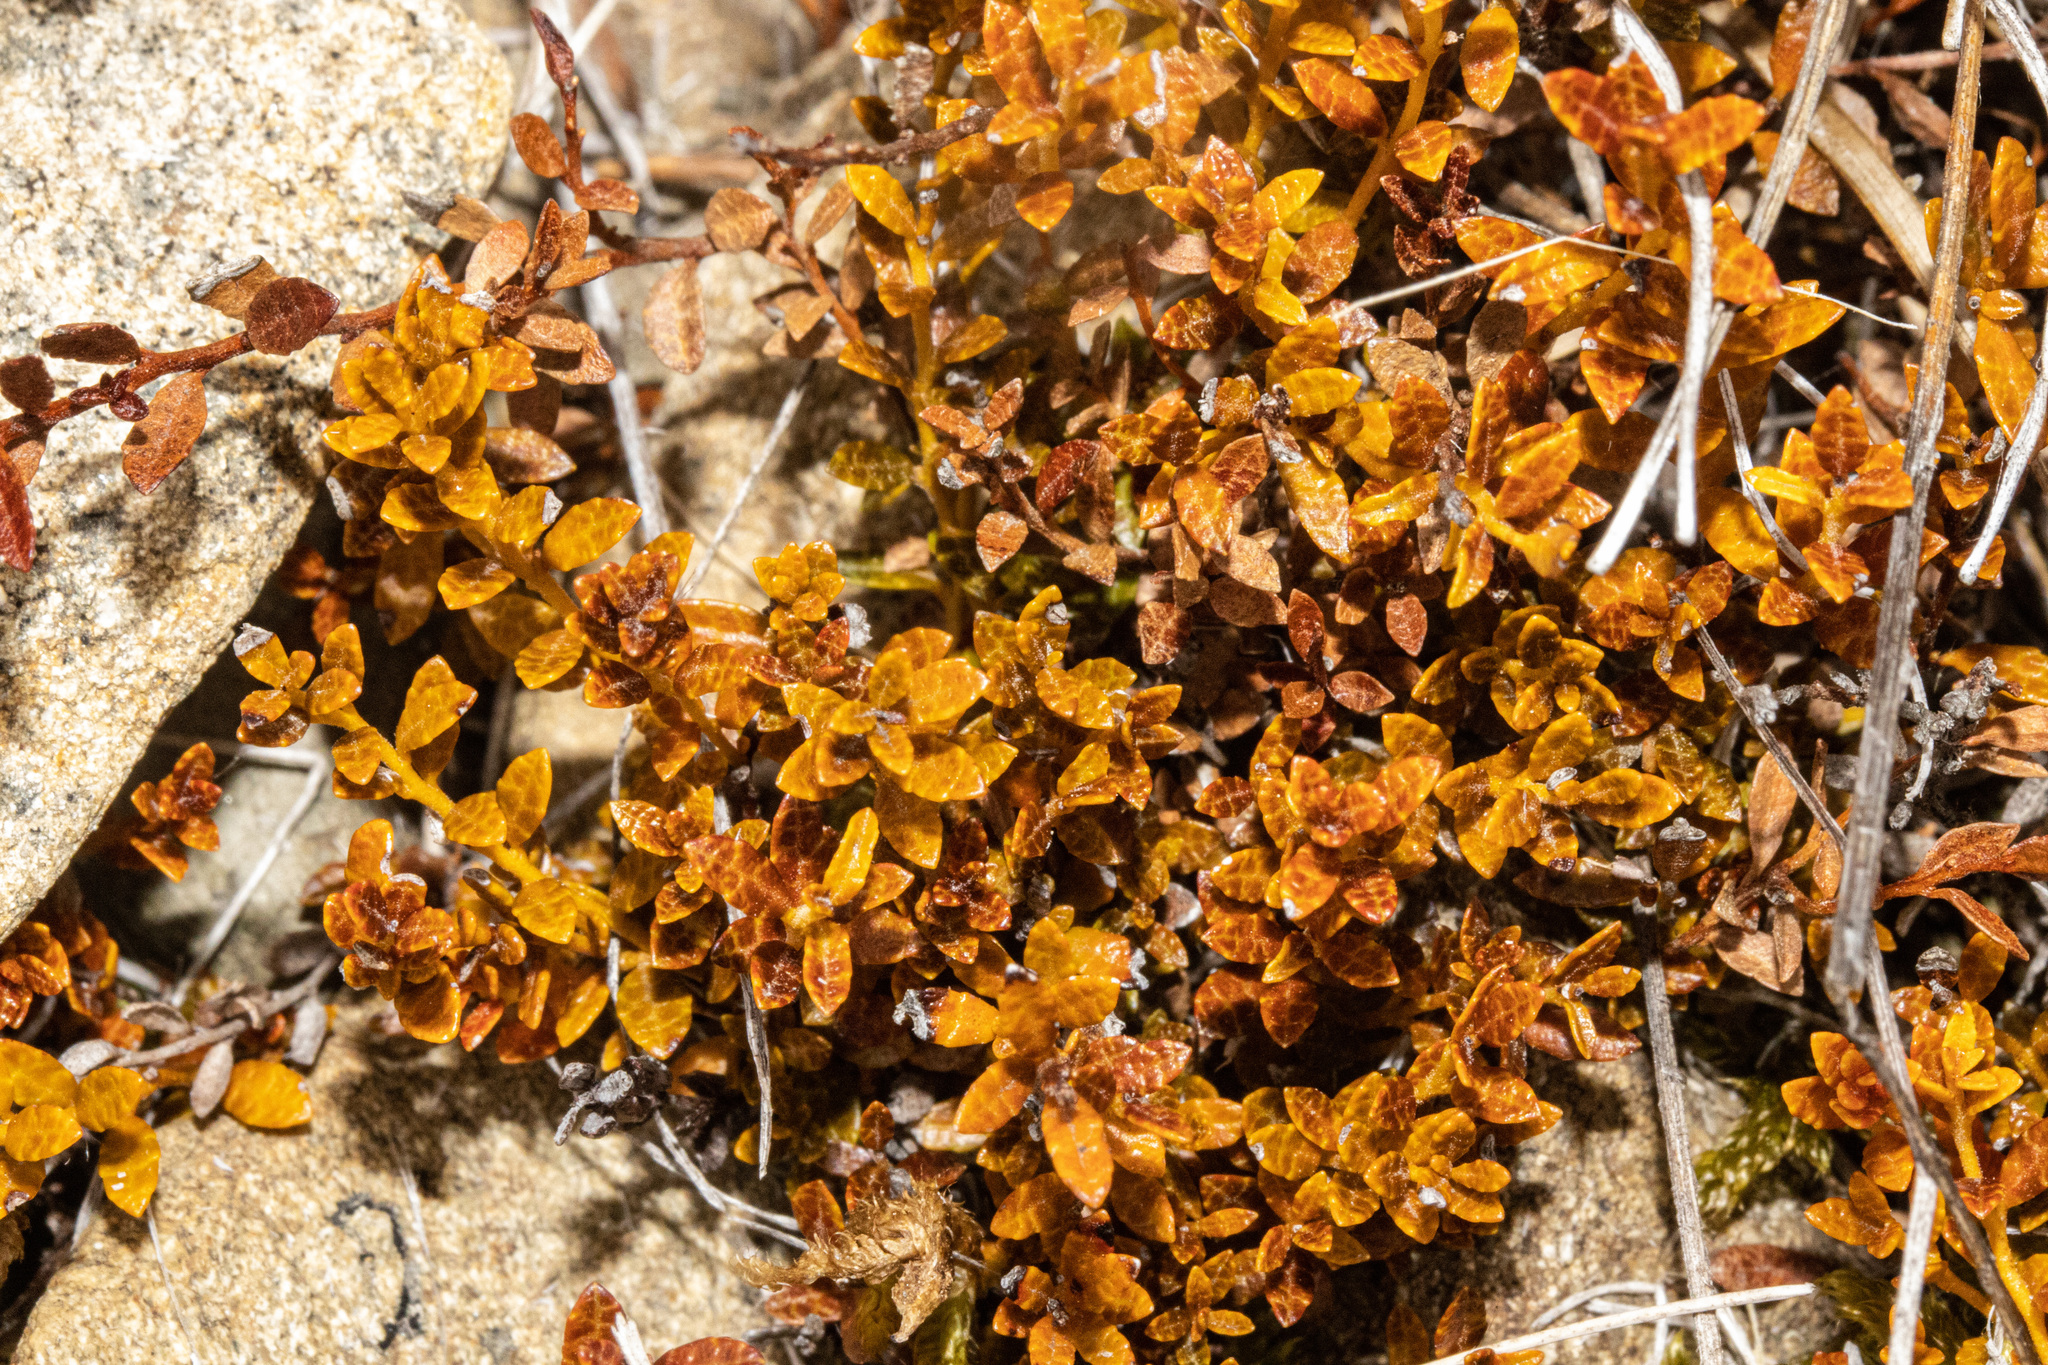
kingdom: Plantae
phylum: Tracheophyta
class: Magnoliopsida
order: Ericales
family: Ericaceae
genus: Gaultheria
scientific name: Gaultheria parvula
